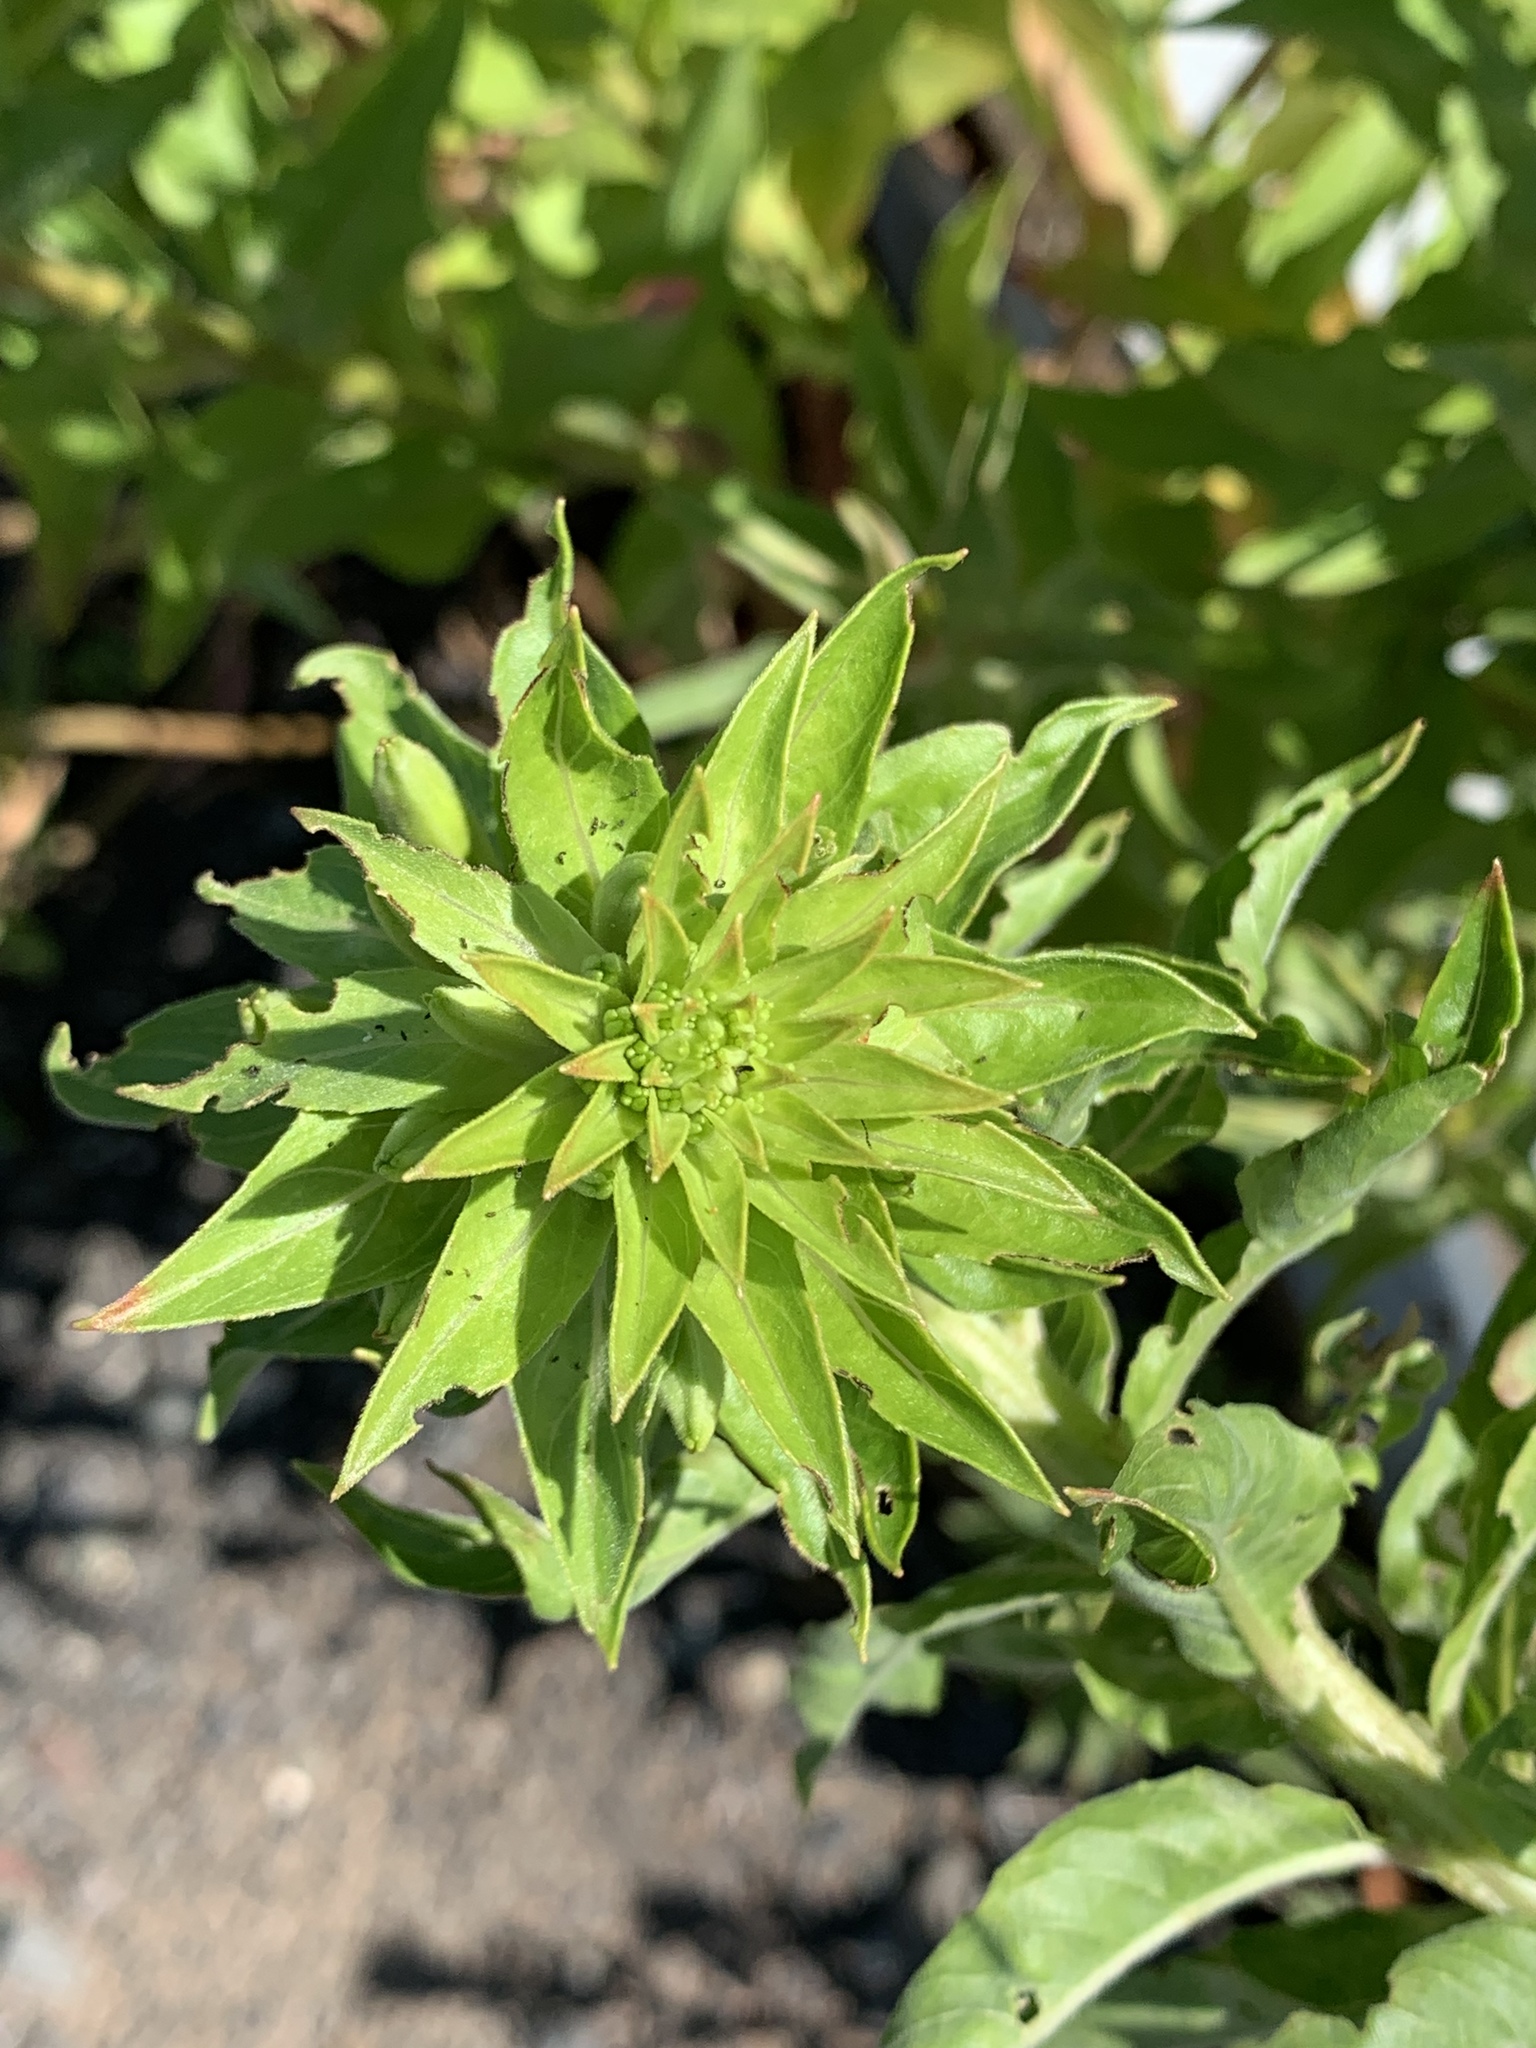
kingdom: Plantae
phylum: Tracheophyta
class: Magnoliopsida
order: Myrtales
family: Onagraceae
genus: Oenothera
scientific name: Oenothera biennis
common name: Common evening-primrose
